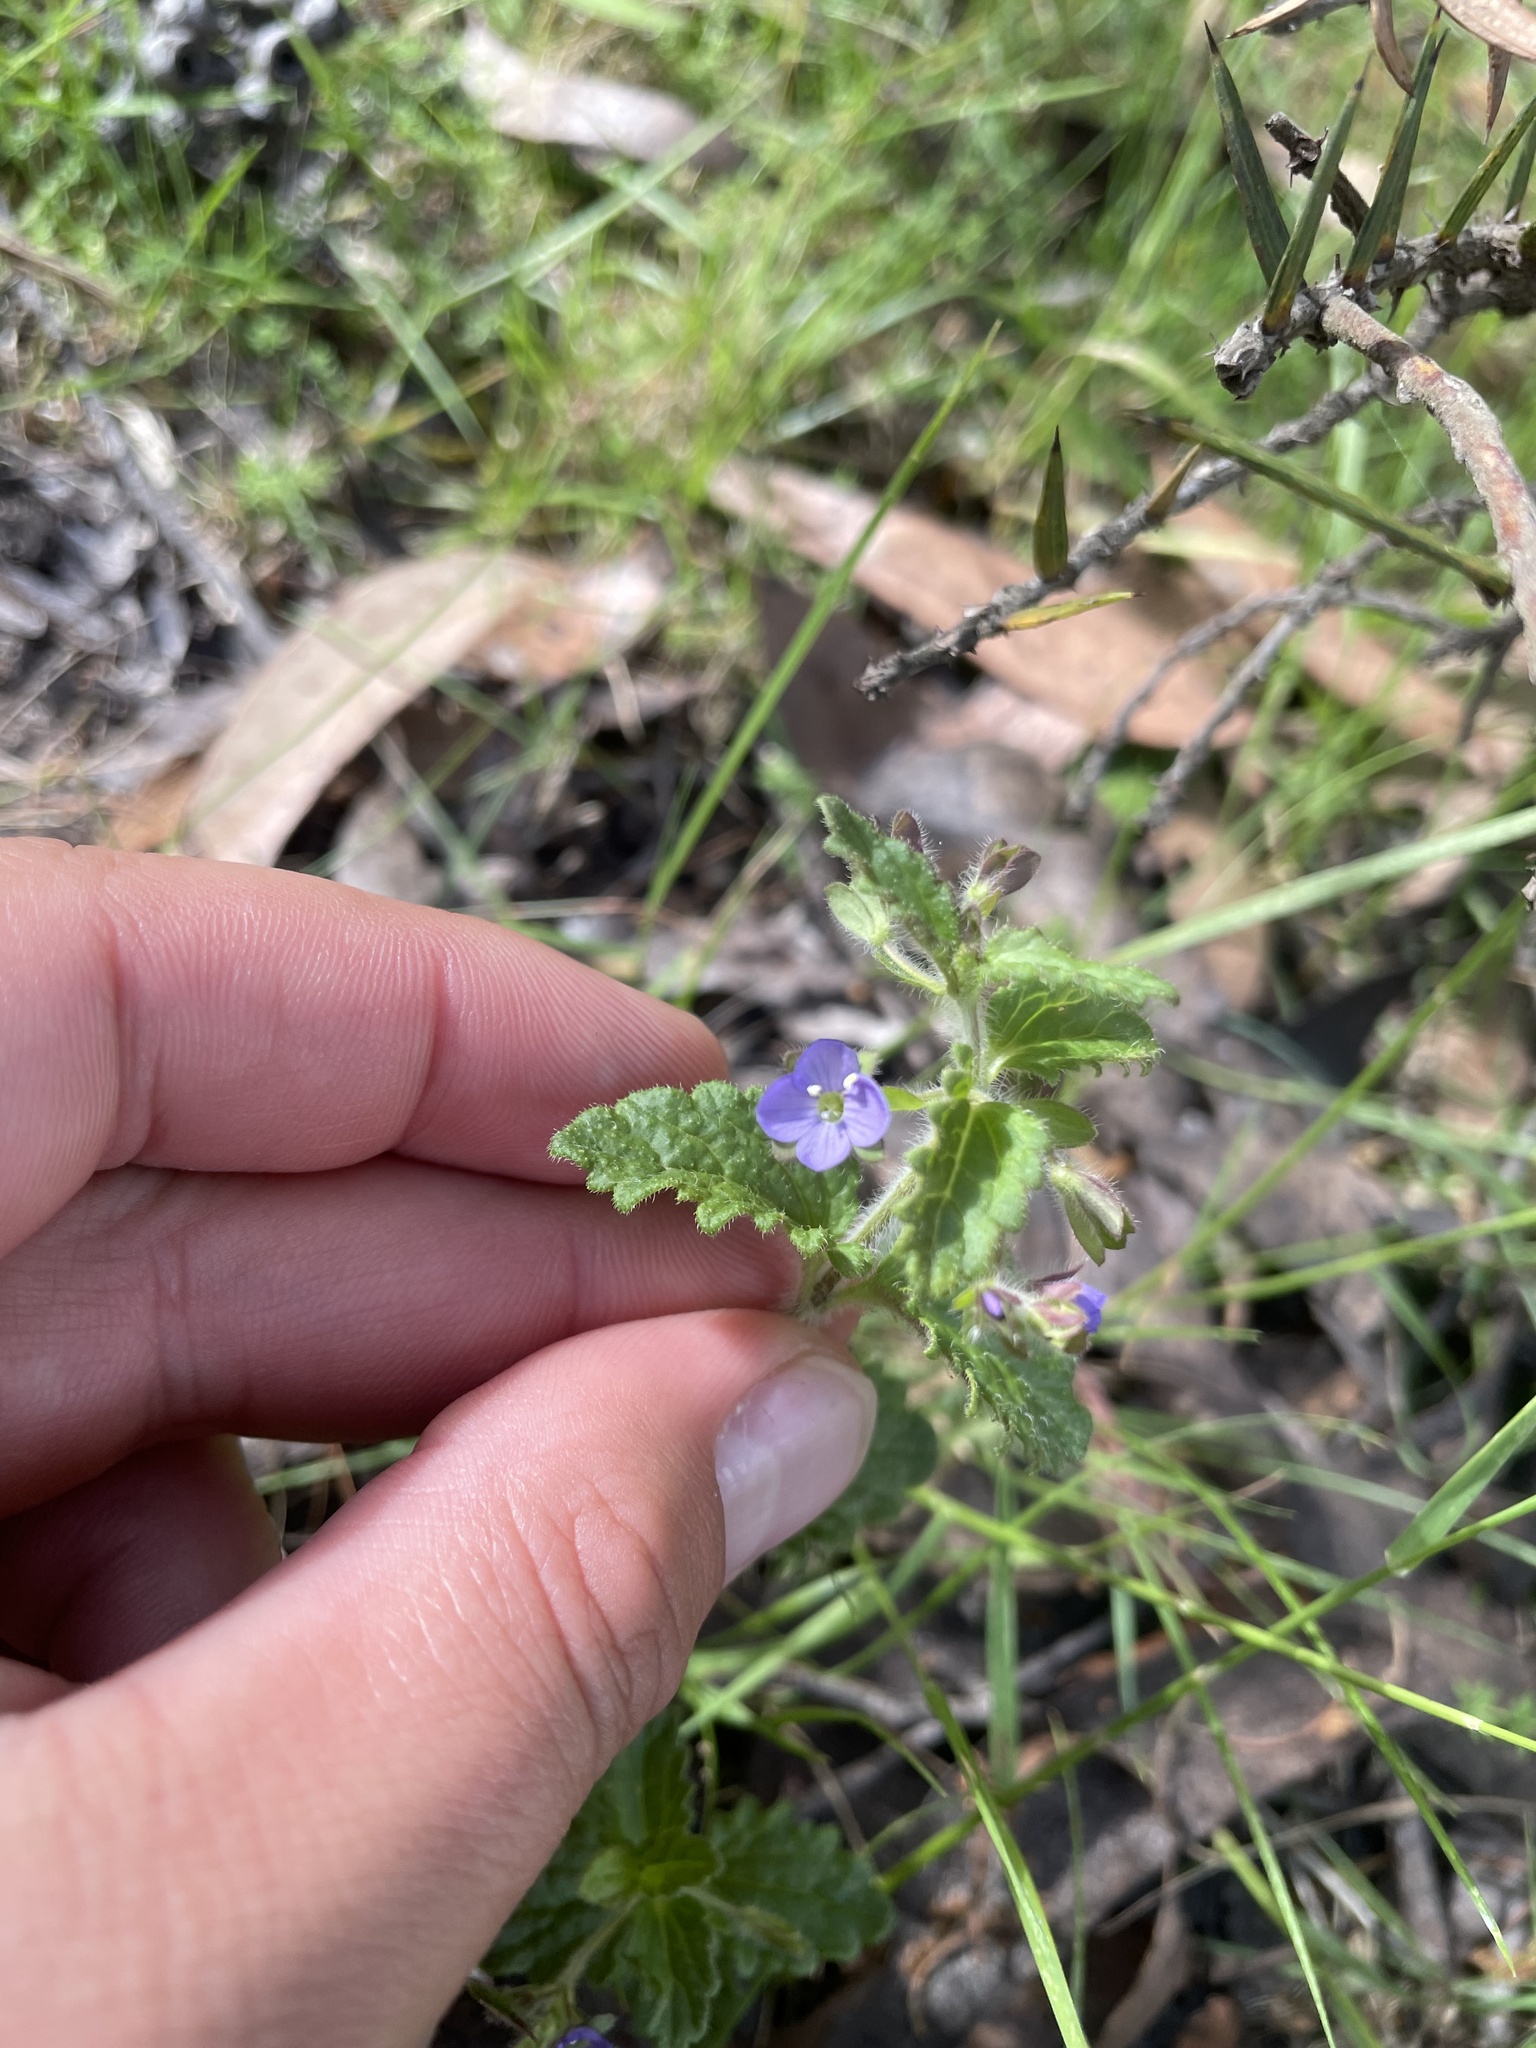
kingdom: Plantae
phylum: Tracheophyta
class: Magnoliopsida
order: Lamiales
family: Plantaginaceae
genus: Veronica
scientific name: Veronica calycina
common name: Cup speedwell
